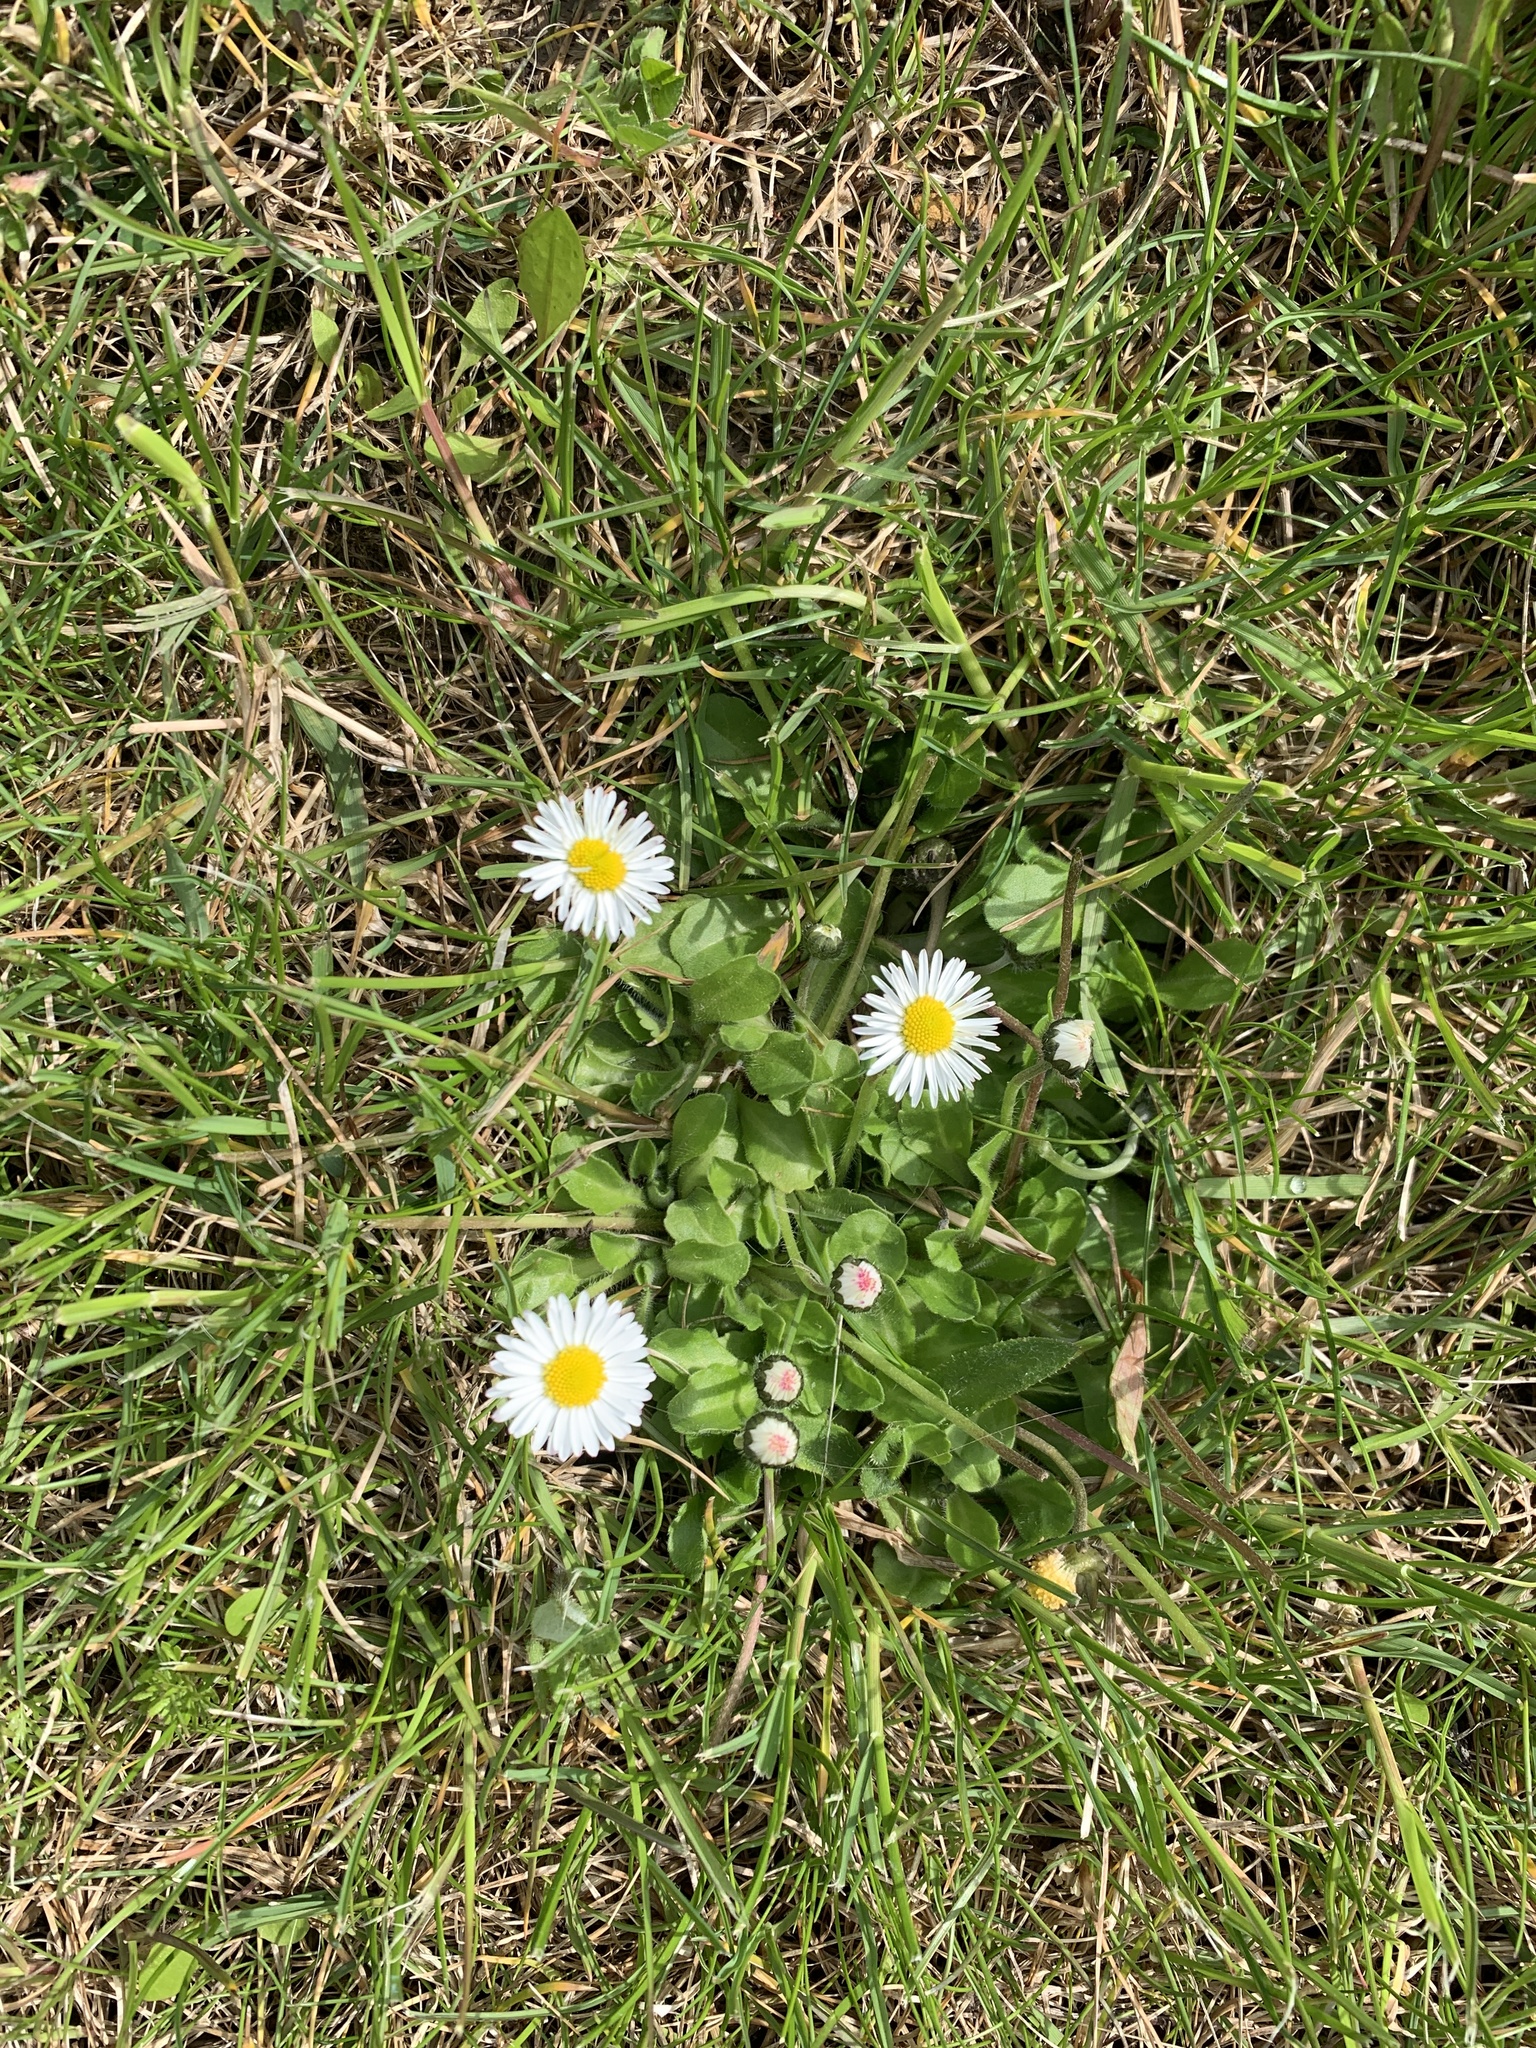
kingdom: Plantae
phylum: Tracheophyta
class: Magnoliopsida
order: Asterales
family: Asteraceae
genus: Bellis
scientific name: Bellis perennis
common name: Lawndaisy
